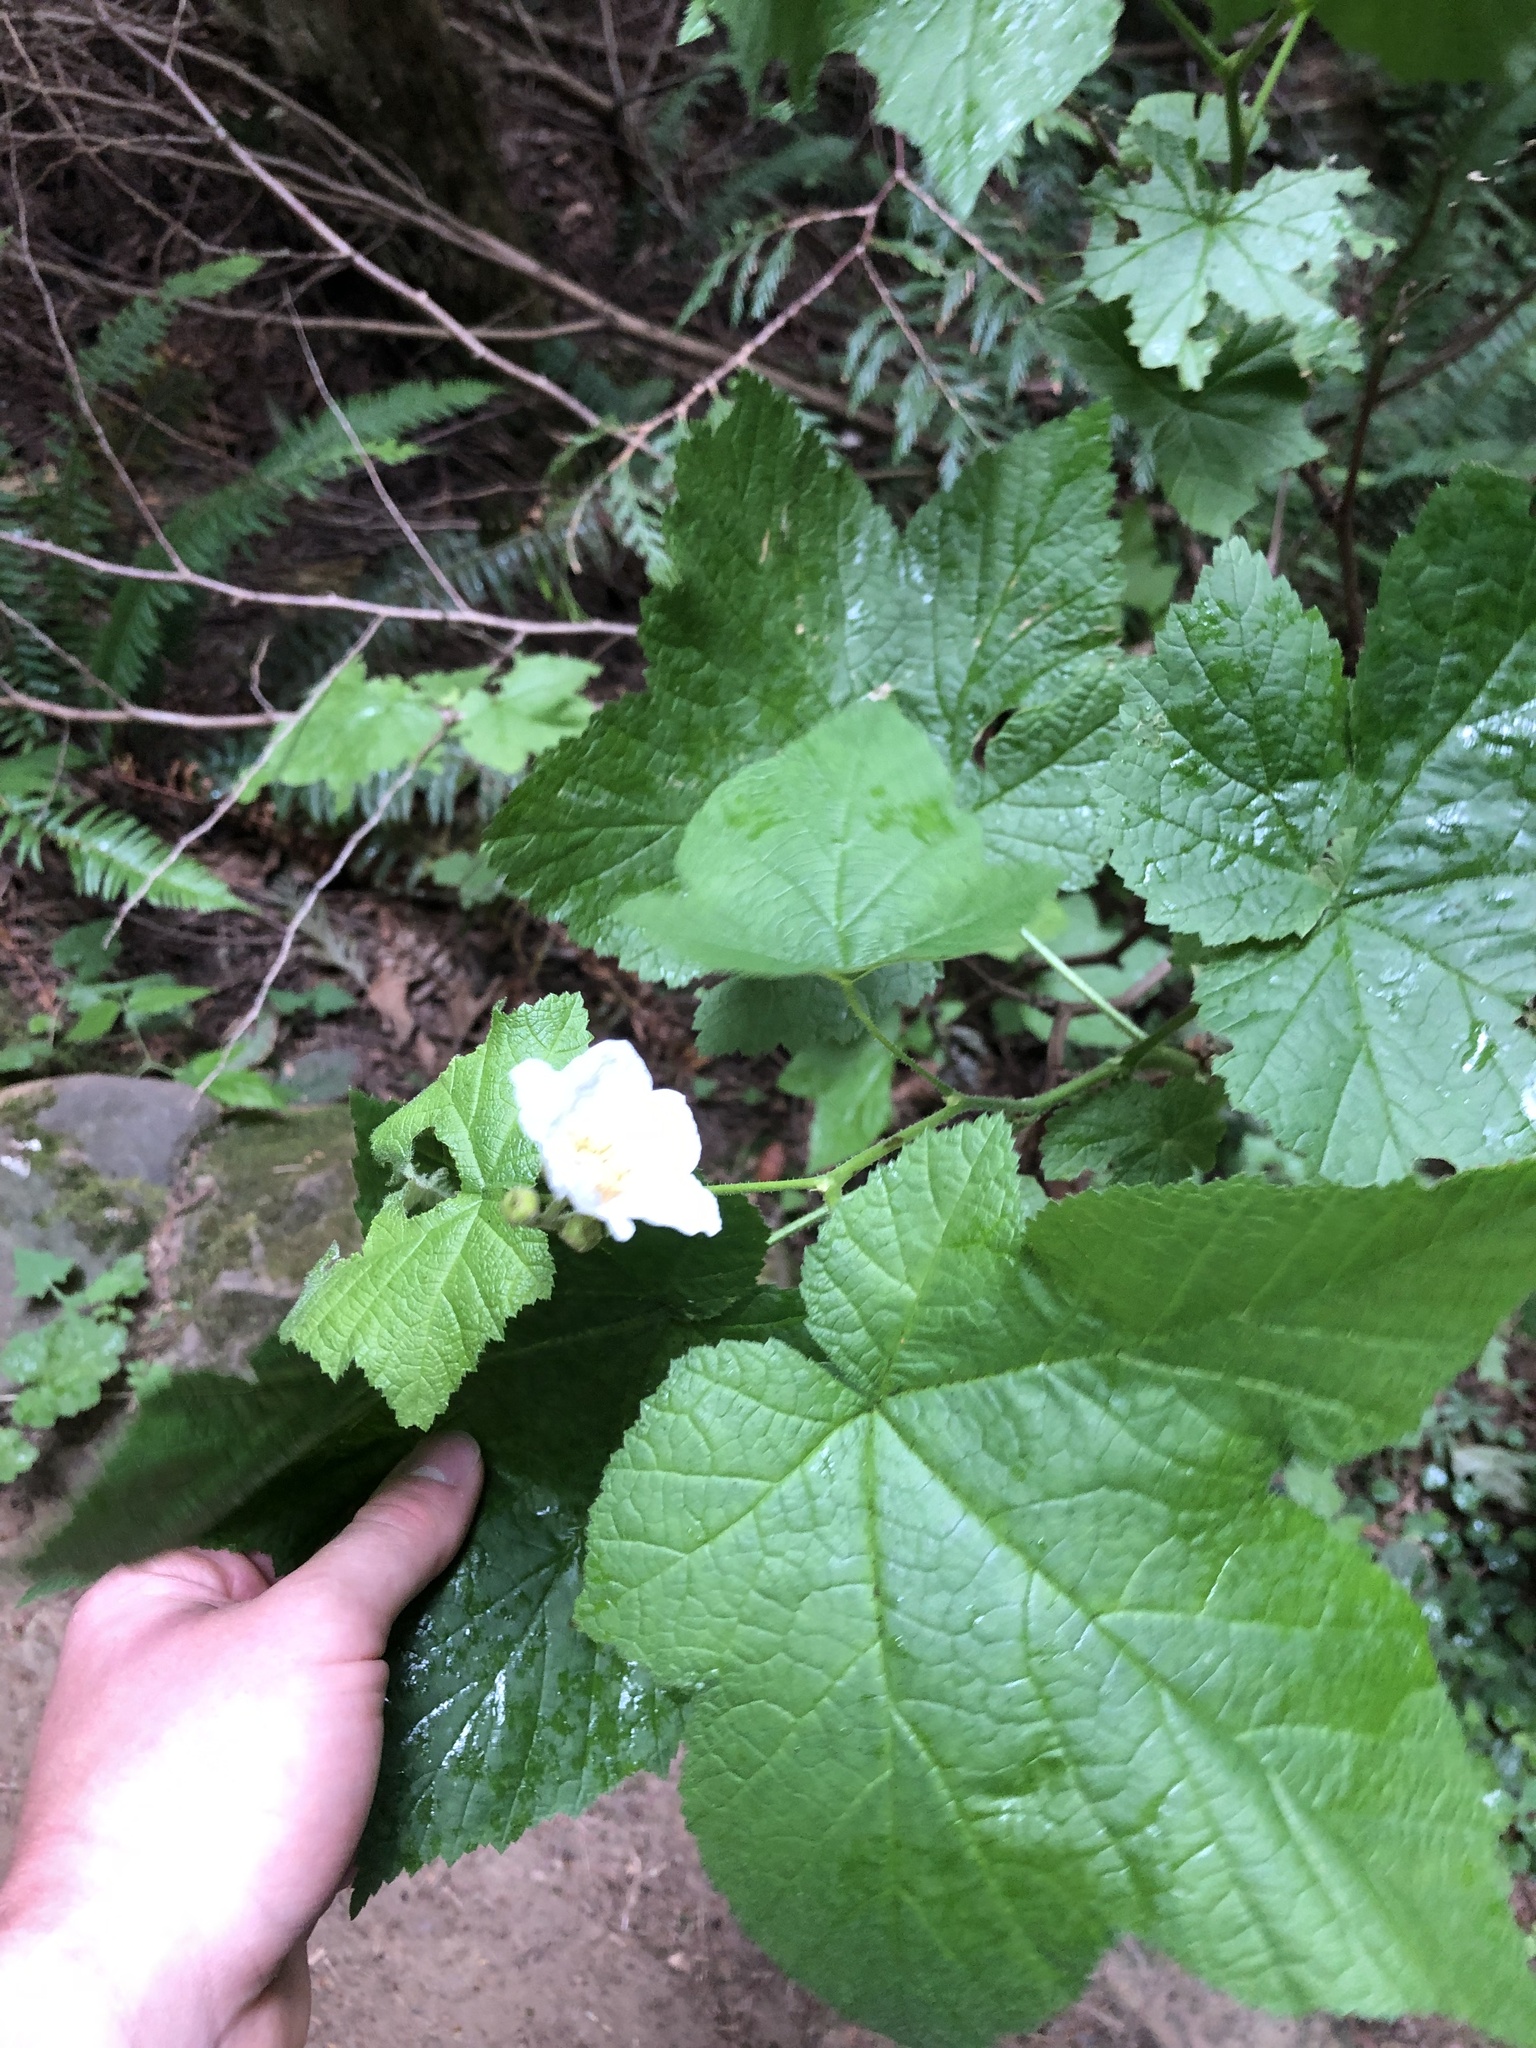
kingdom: Plantae
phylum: Tracheophyta
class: Magnoliopsida
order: Rosales
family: Rosaceae
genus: Rubus
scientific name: Rubus parviflorus
